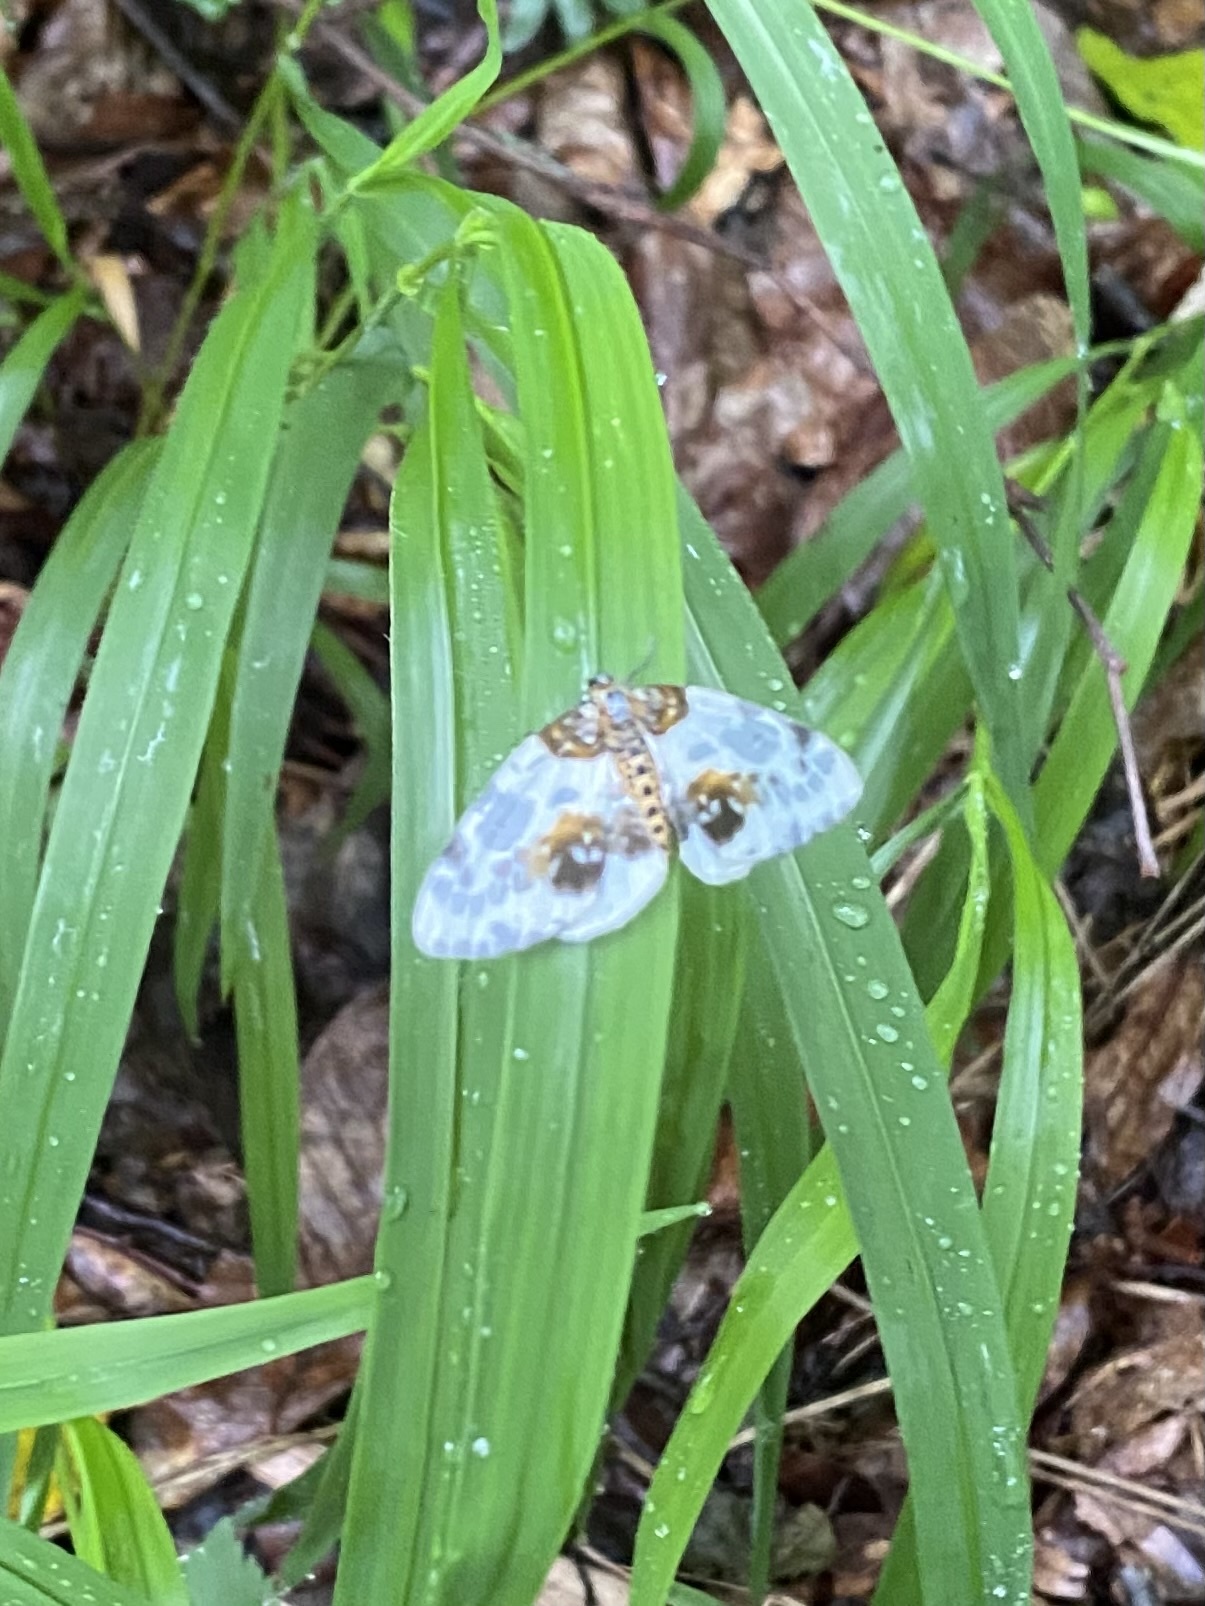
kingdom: Animalia
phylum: Arthropoda
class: Insecta
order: Lepidoptera
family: Geometridae
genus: Abraxas
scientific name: Abraxas sylvata
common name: Clouded magpie
